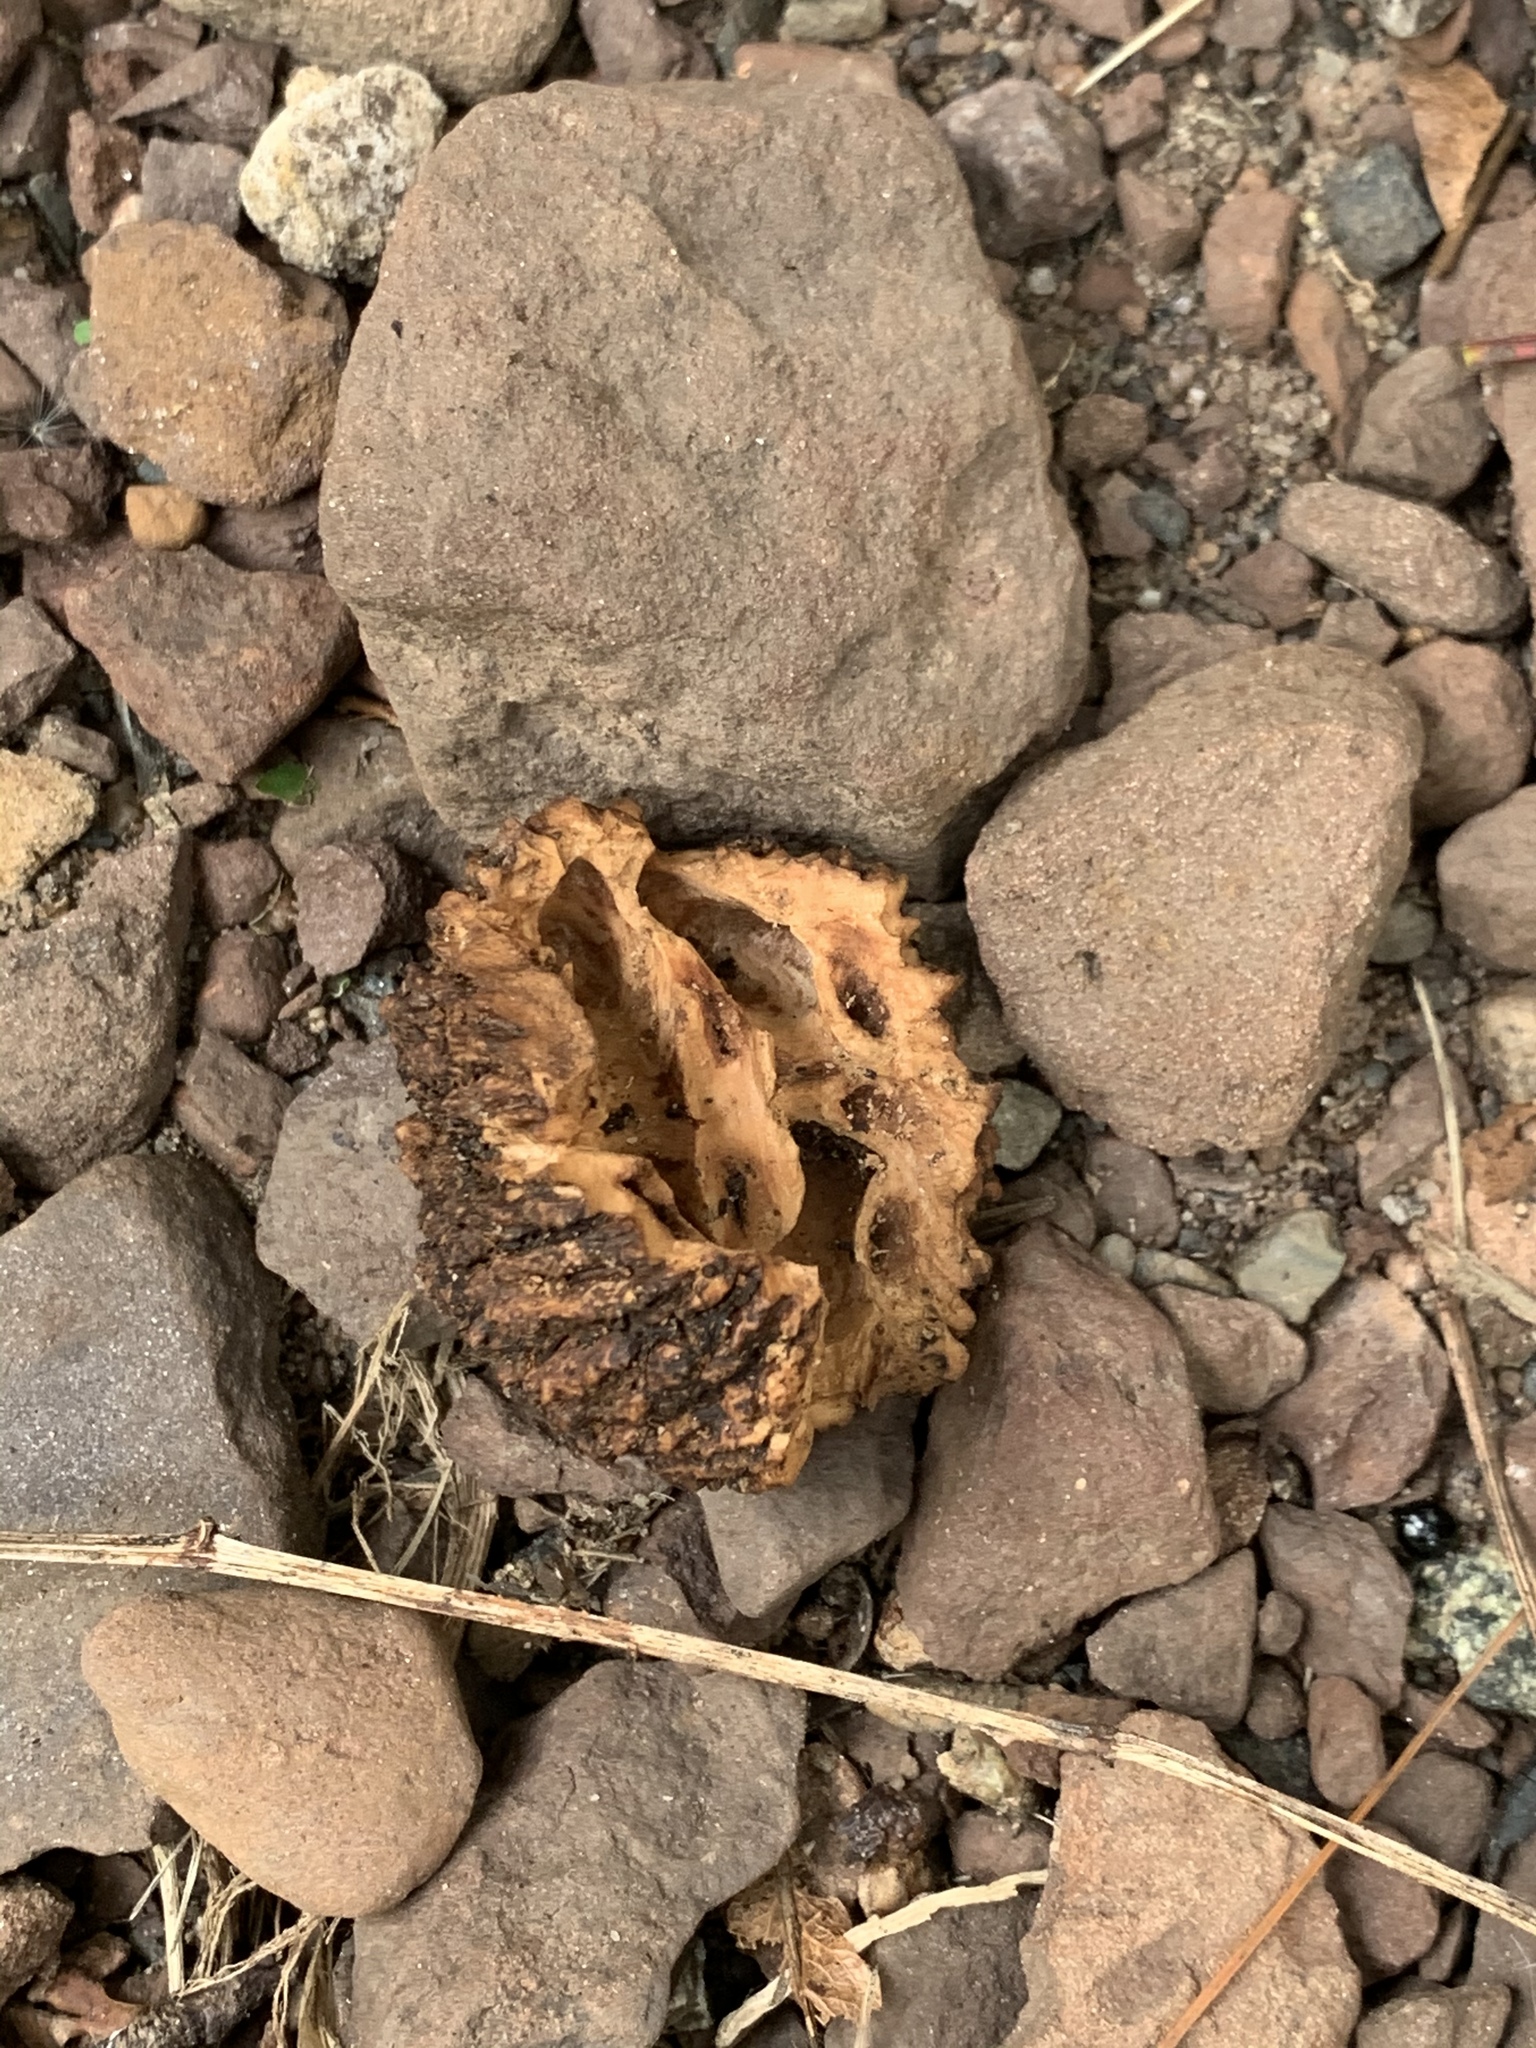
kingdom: Plantae
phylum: Tracheophyta
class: Magnoliopsida
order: Fagales
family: Juglandaceae
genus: Juglans
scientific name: Juglans nigra
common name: Black walnut
